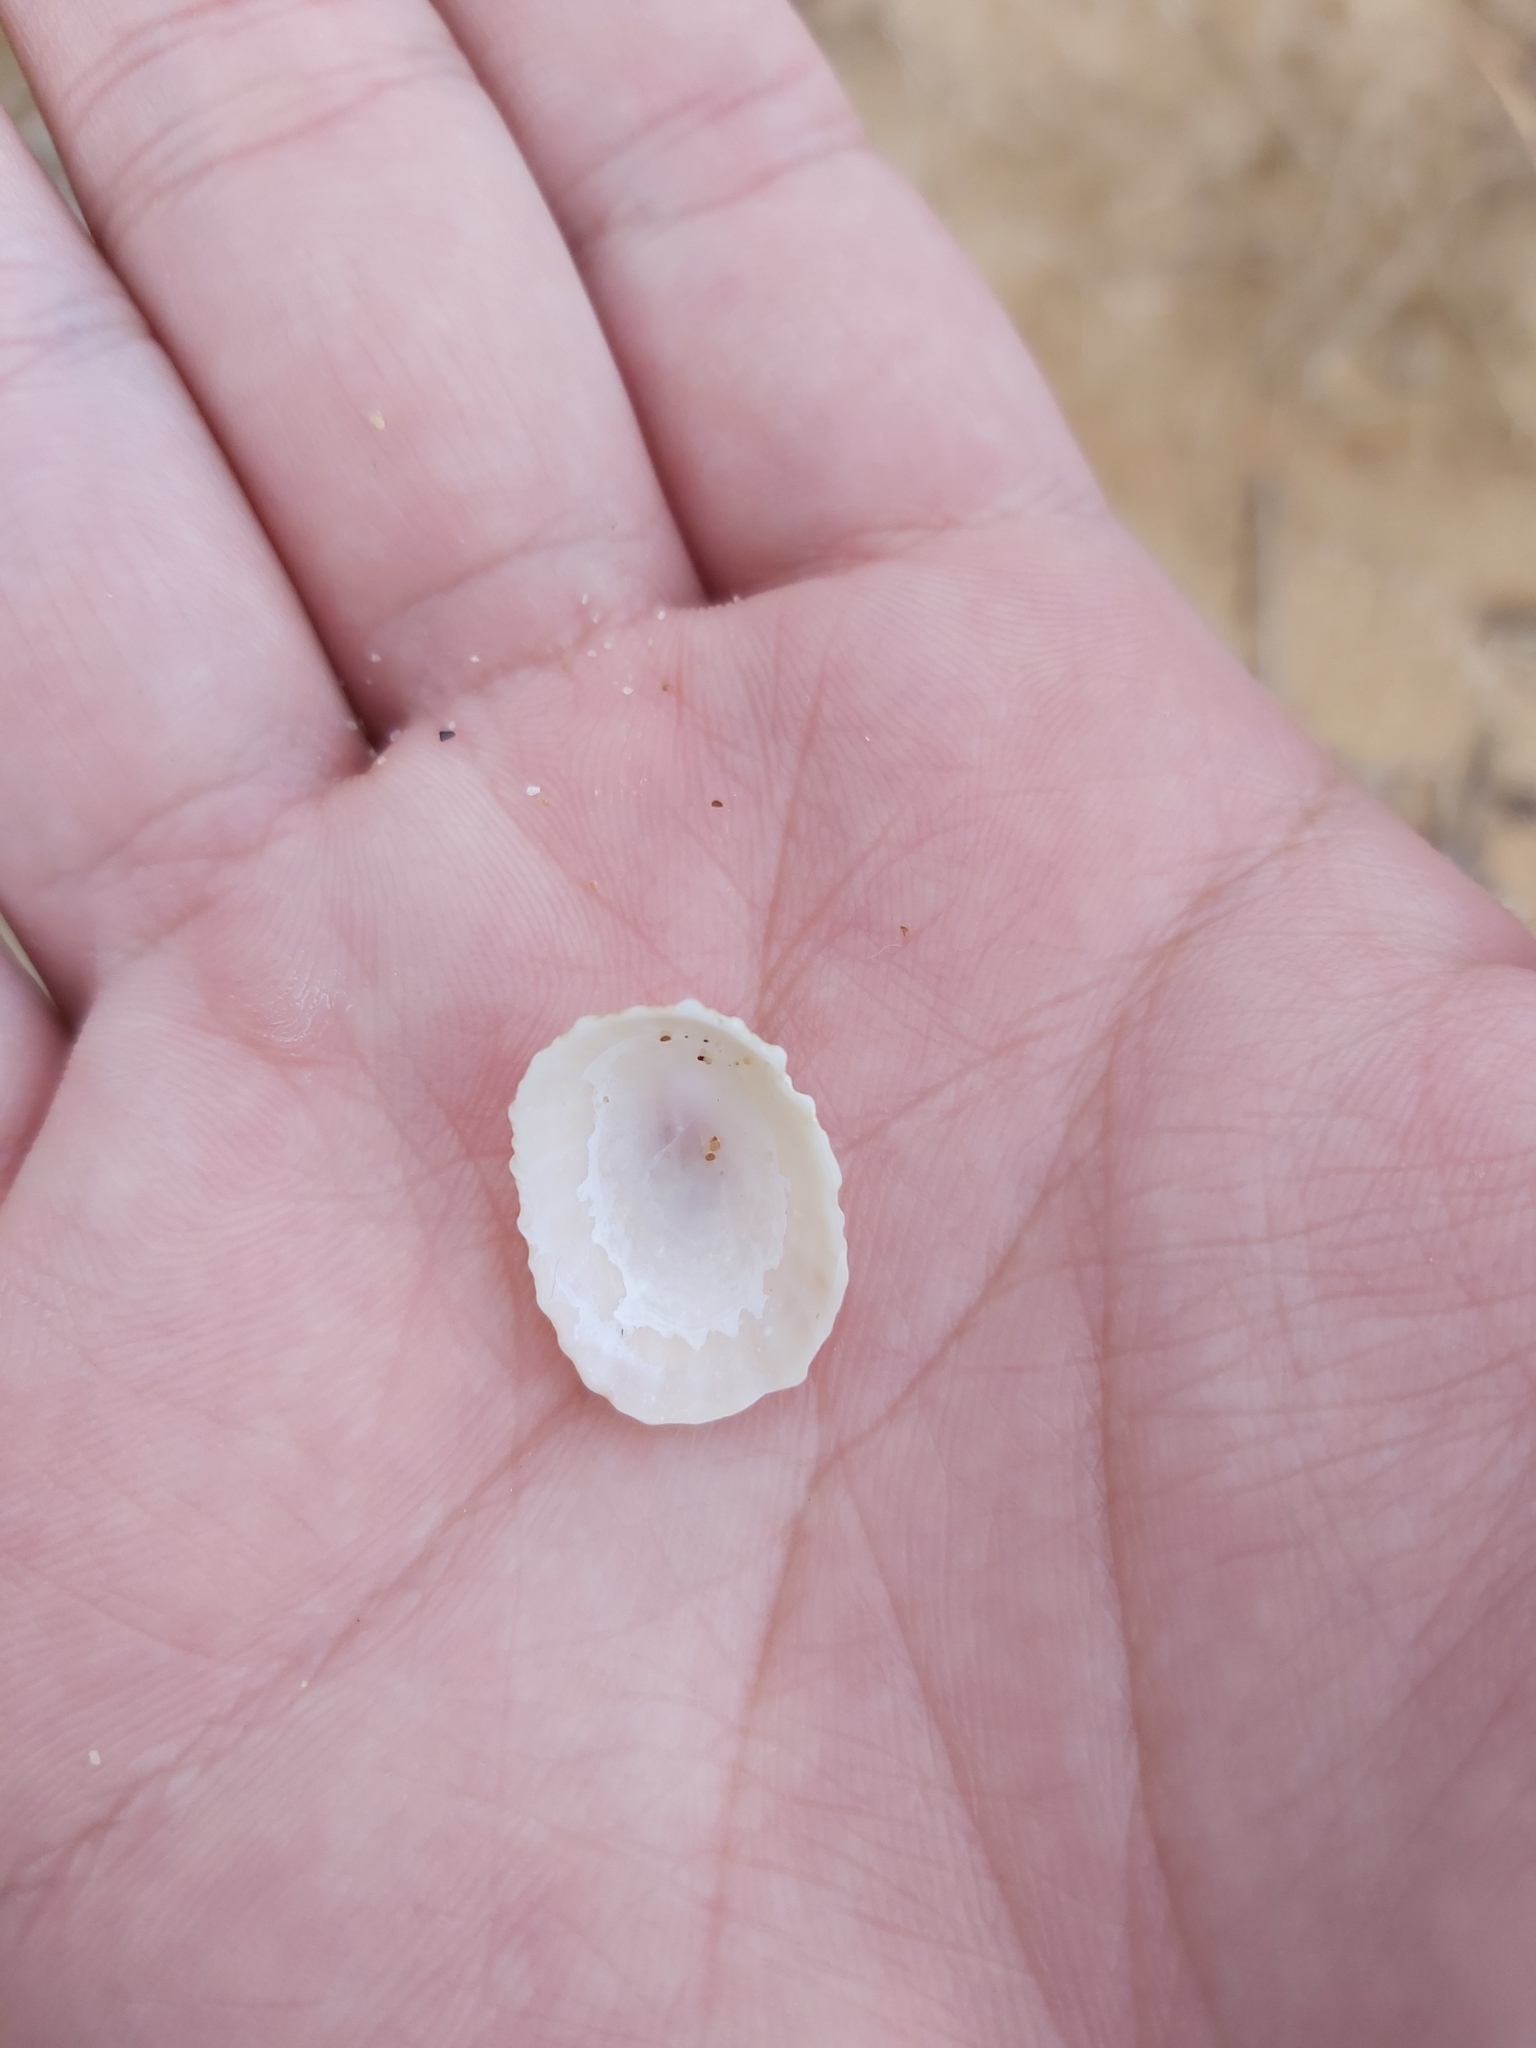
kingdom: Animalia
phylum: Mollusca
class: Gastropoda
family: Patellidae
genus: Scutellastra
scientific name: Scutellastra peronii
